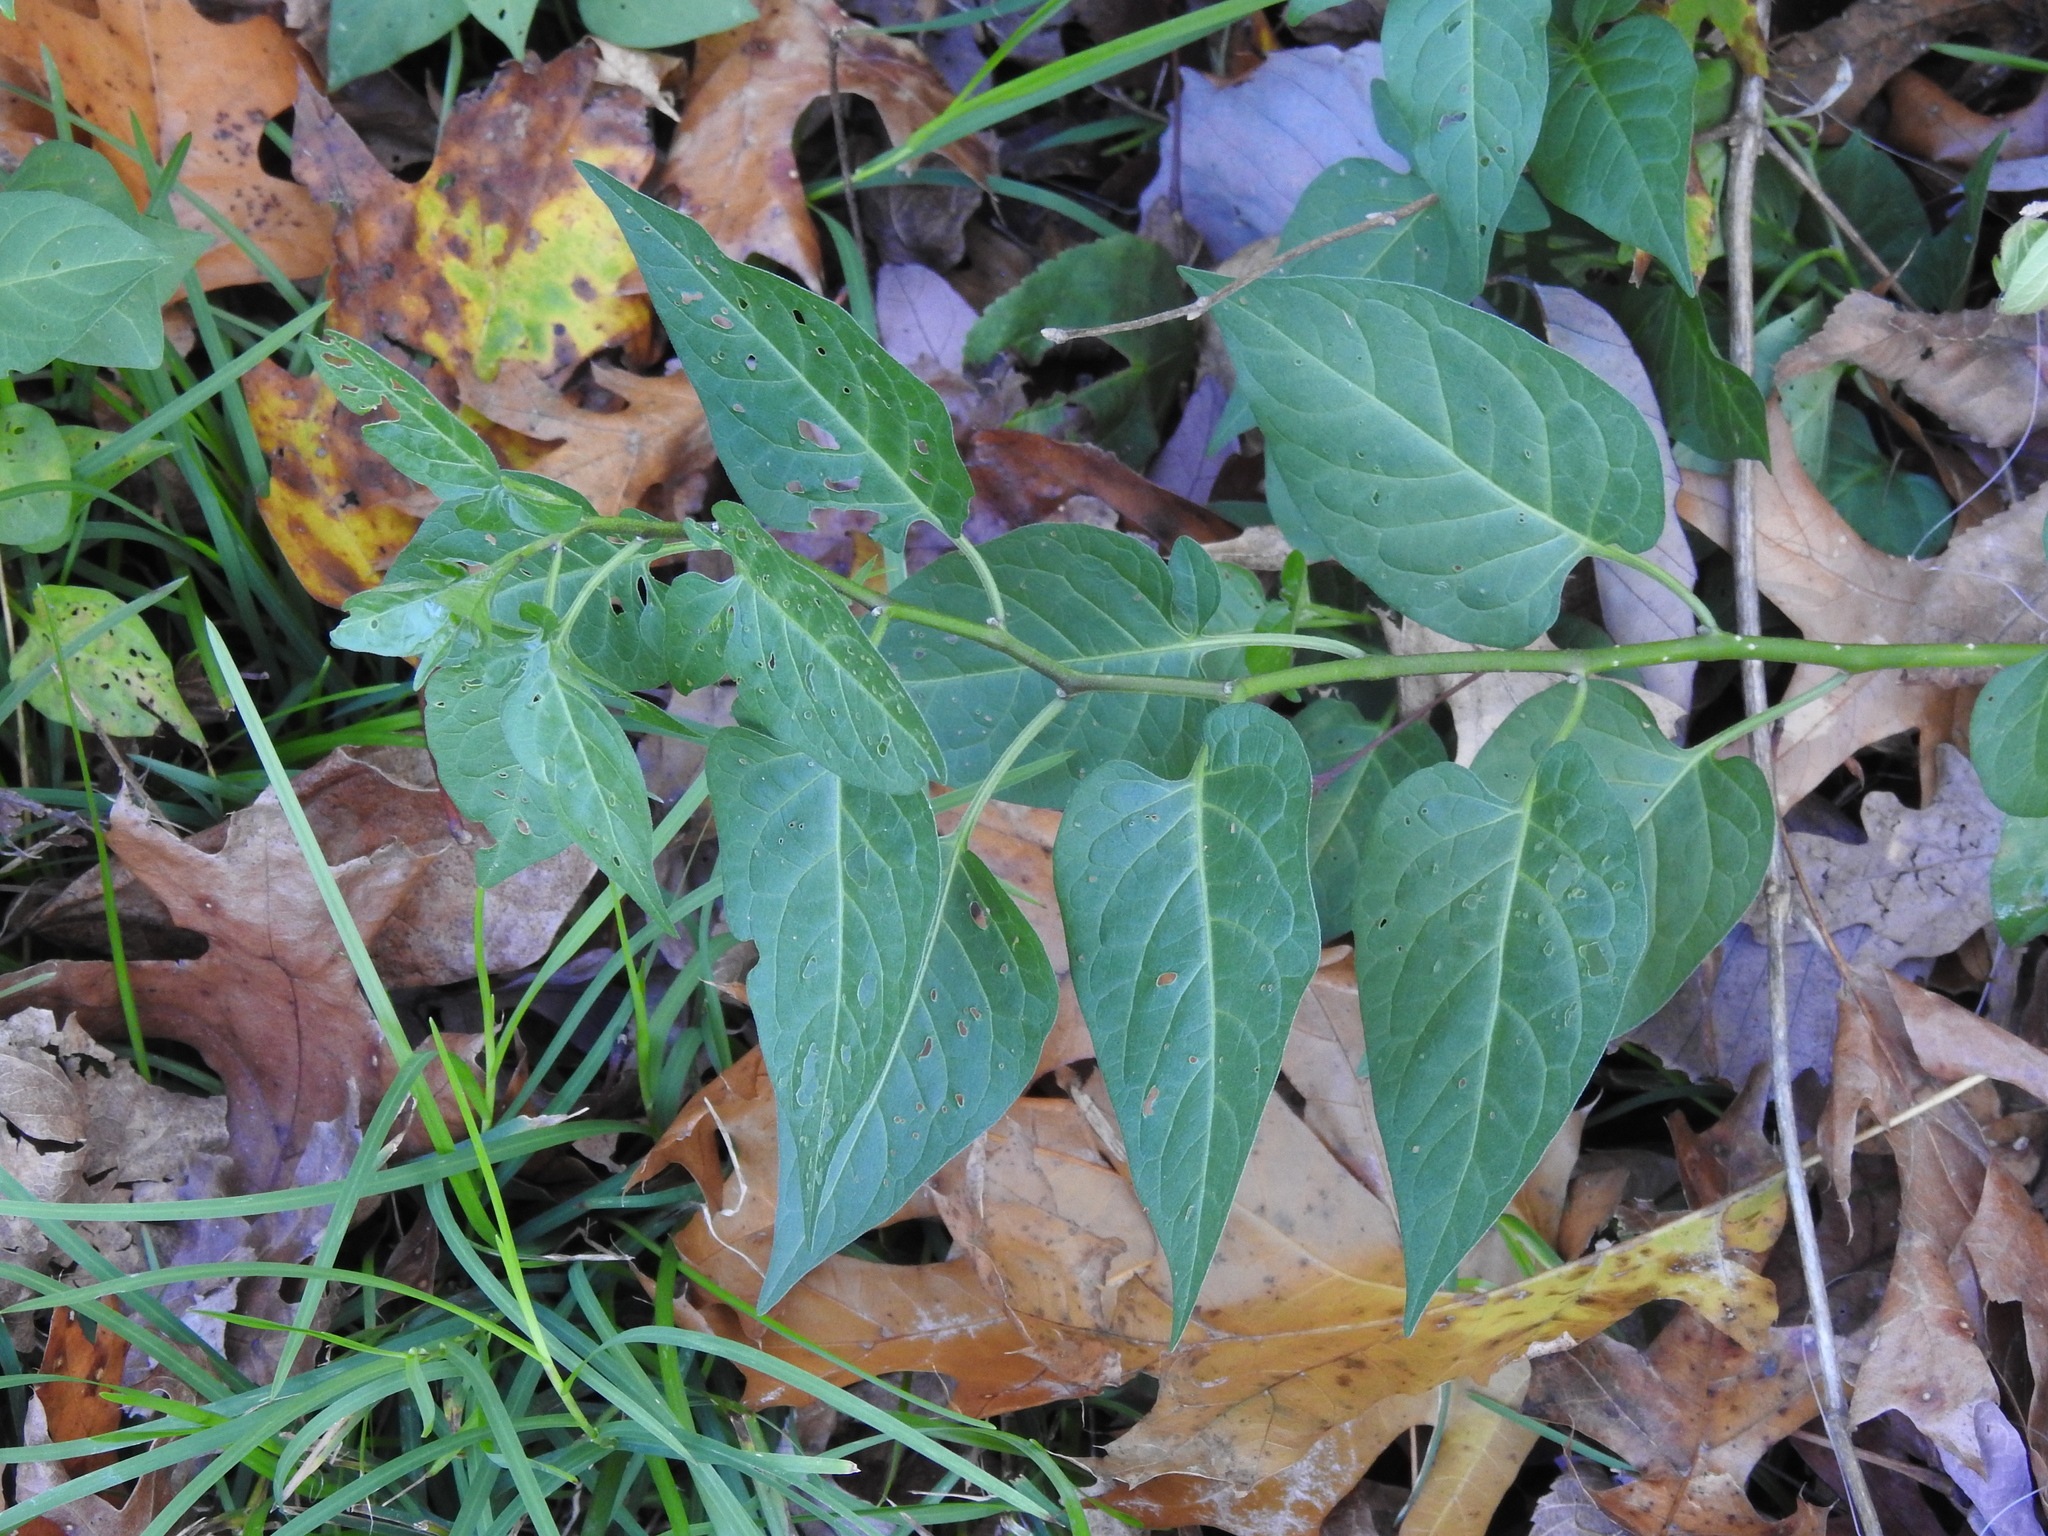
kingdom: Plantae
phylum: Tracheophyta
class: Magnoliopsida
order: Solanales
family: Solanaceae
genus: Solanum
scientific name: Solanum dulcamara
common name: Climbing nightshade
